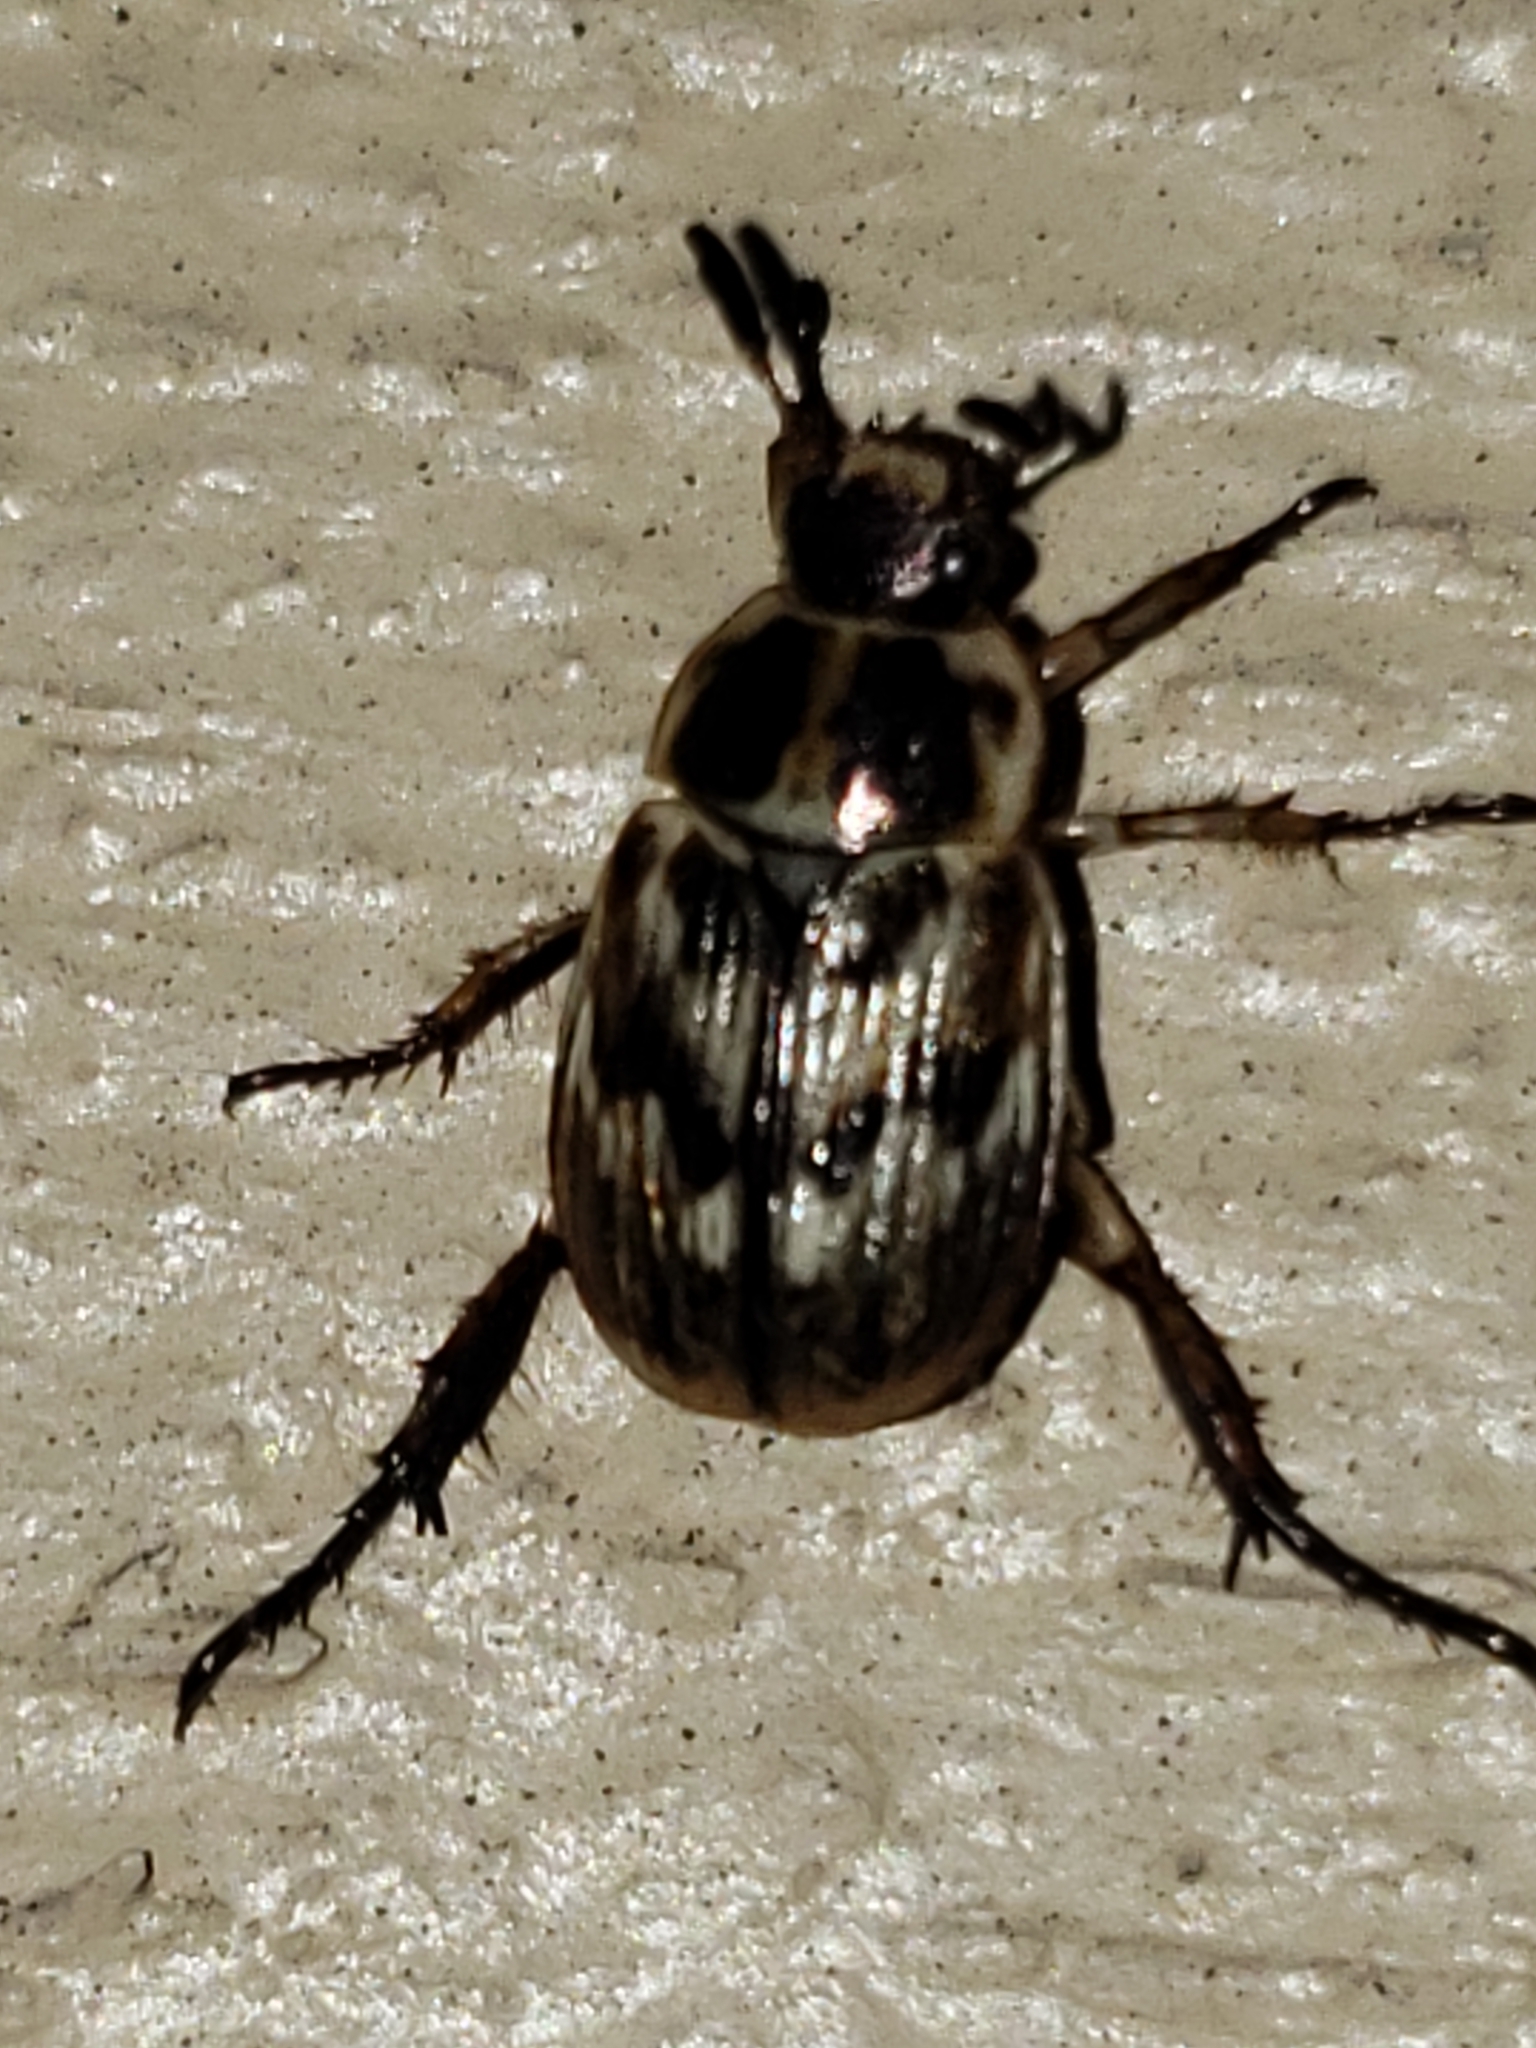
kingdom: Animalia
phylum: Arthropoda
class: Insecta
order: Coleoptera
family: Scarabaeidae
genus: Exomala
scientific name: Exomala orientalis
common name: Oriental beetle
